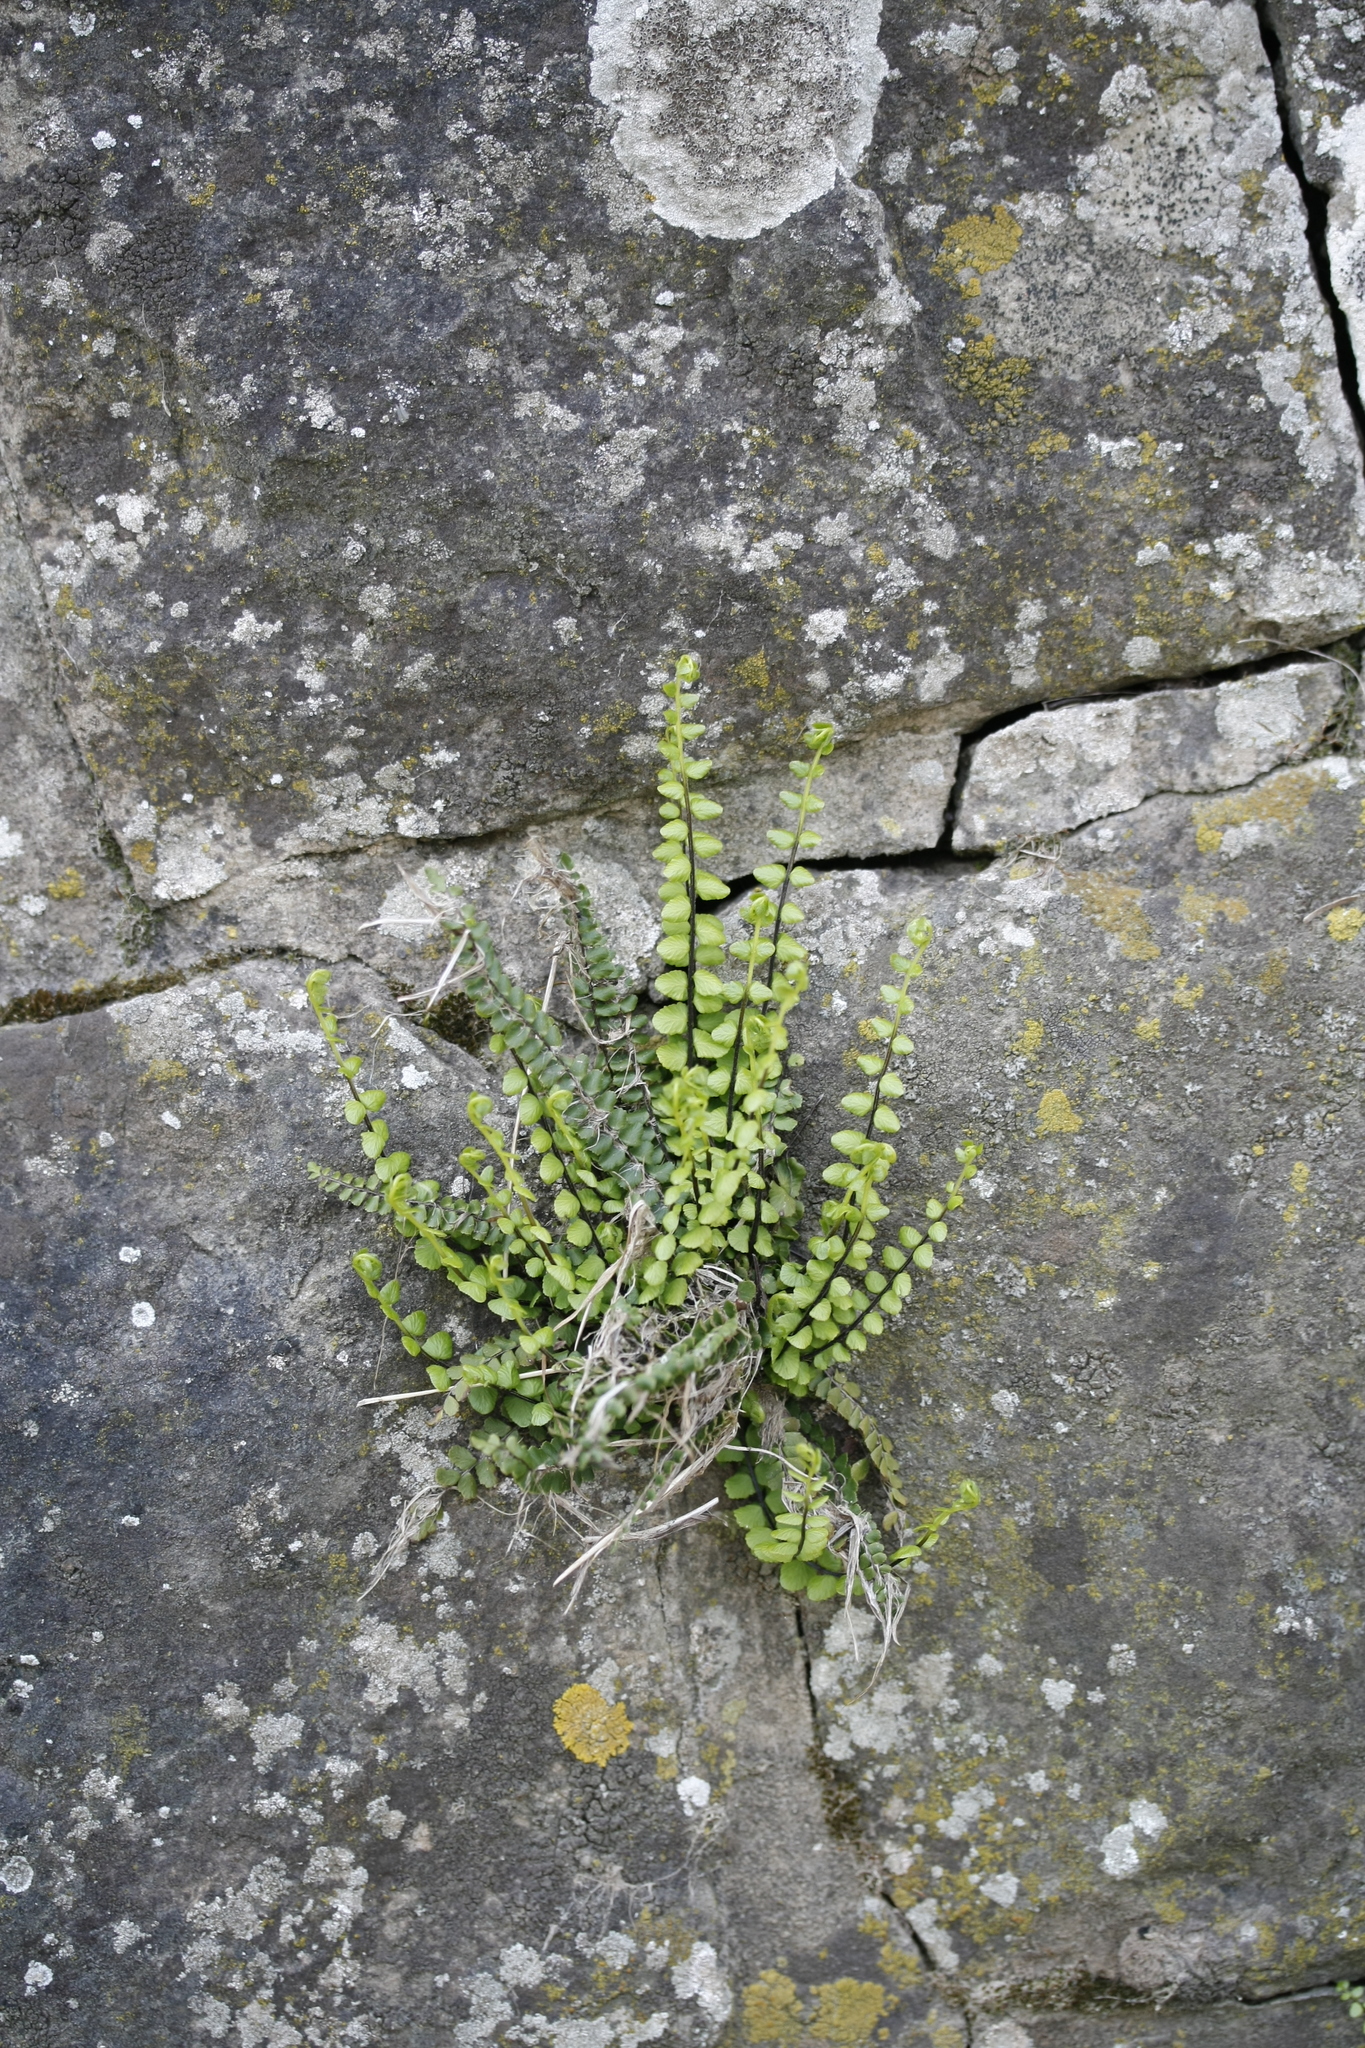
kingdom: Plantae
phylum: Tracheophyta
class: Polypodiopsida
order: Polypodiales
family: Aspleniaceae
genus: Asplenium
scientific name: Asplenium trichomanes
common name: Maidenhair spleenwort
